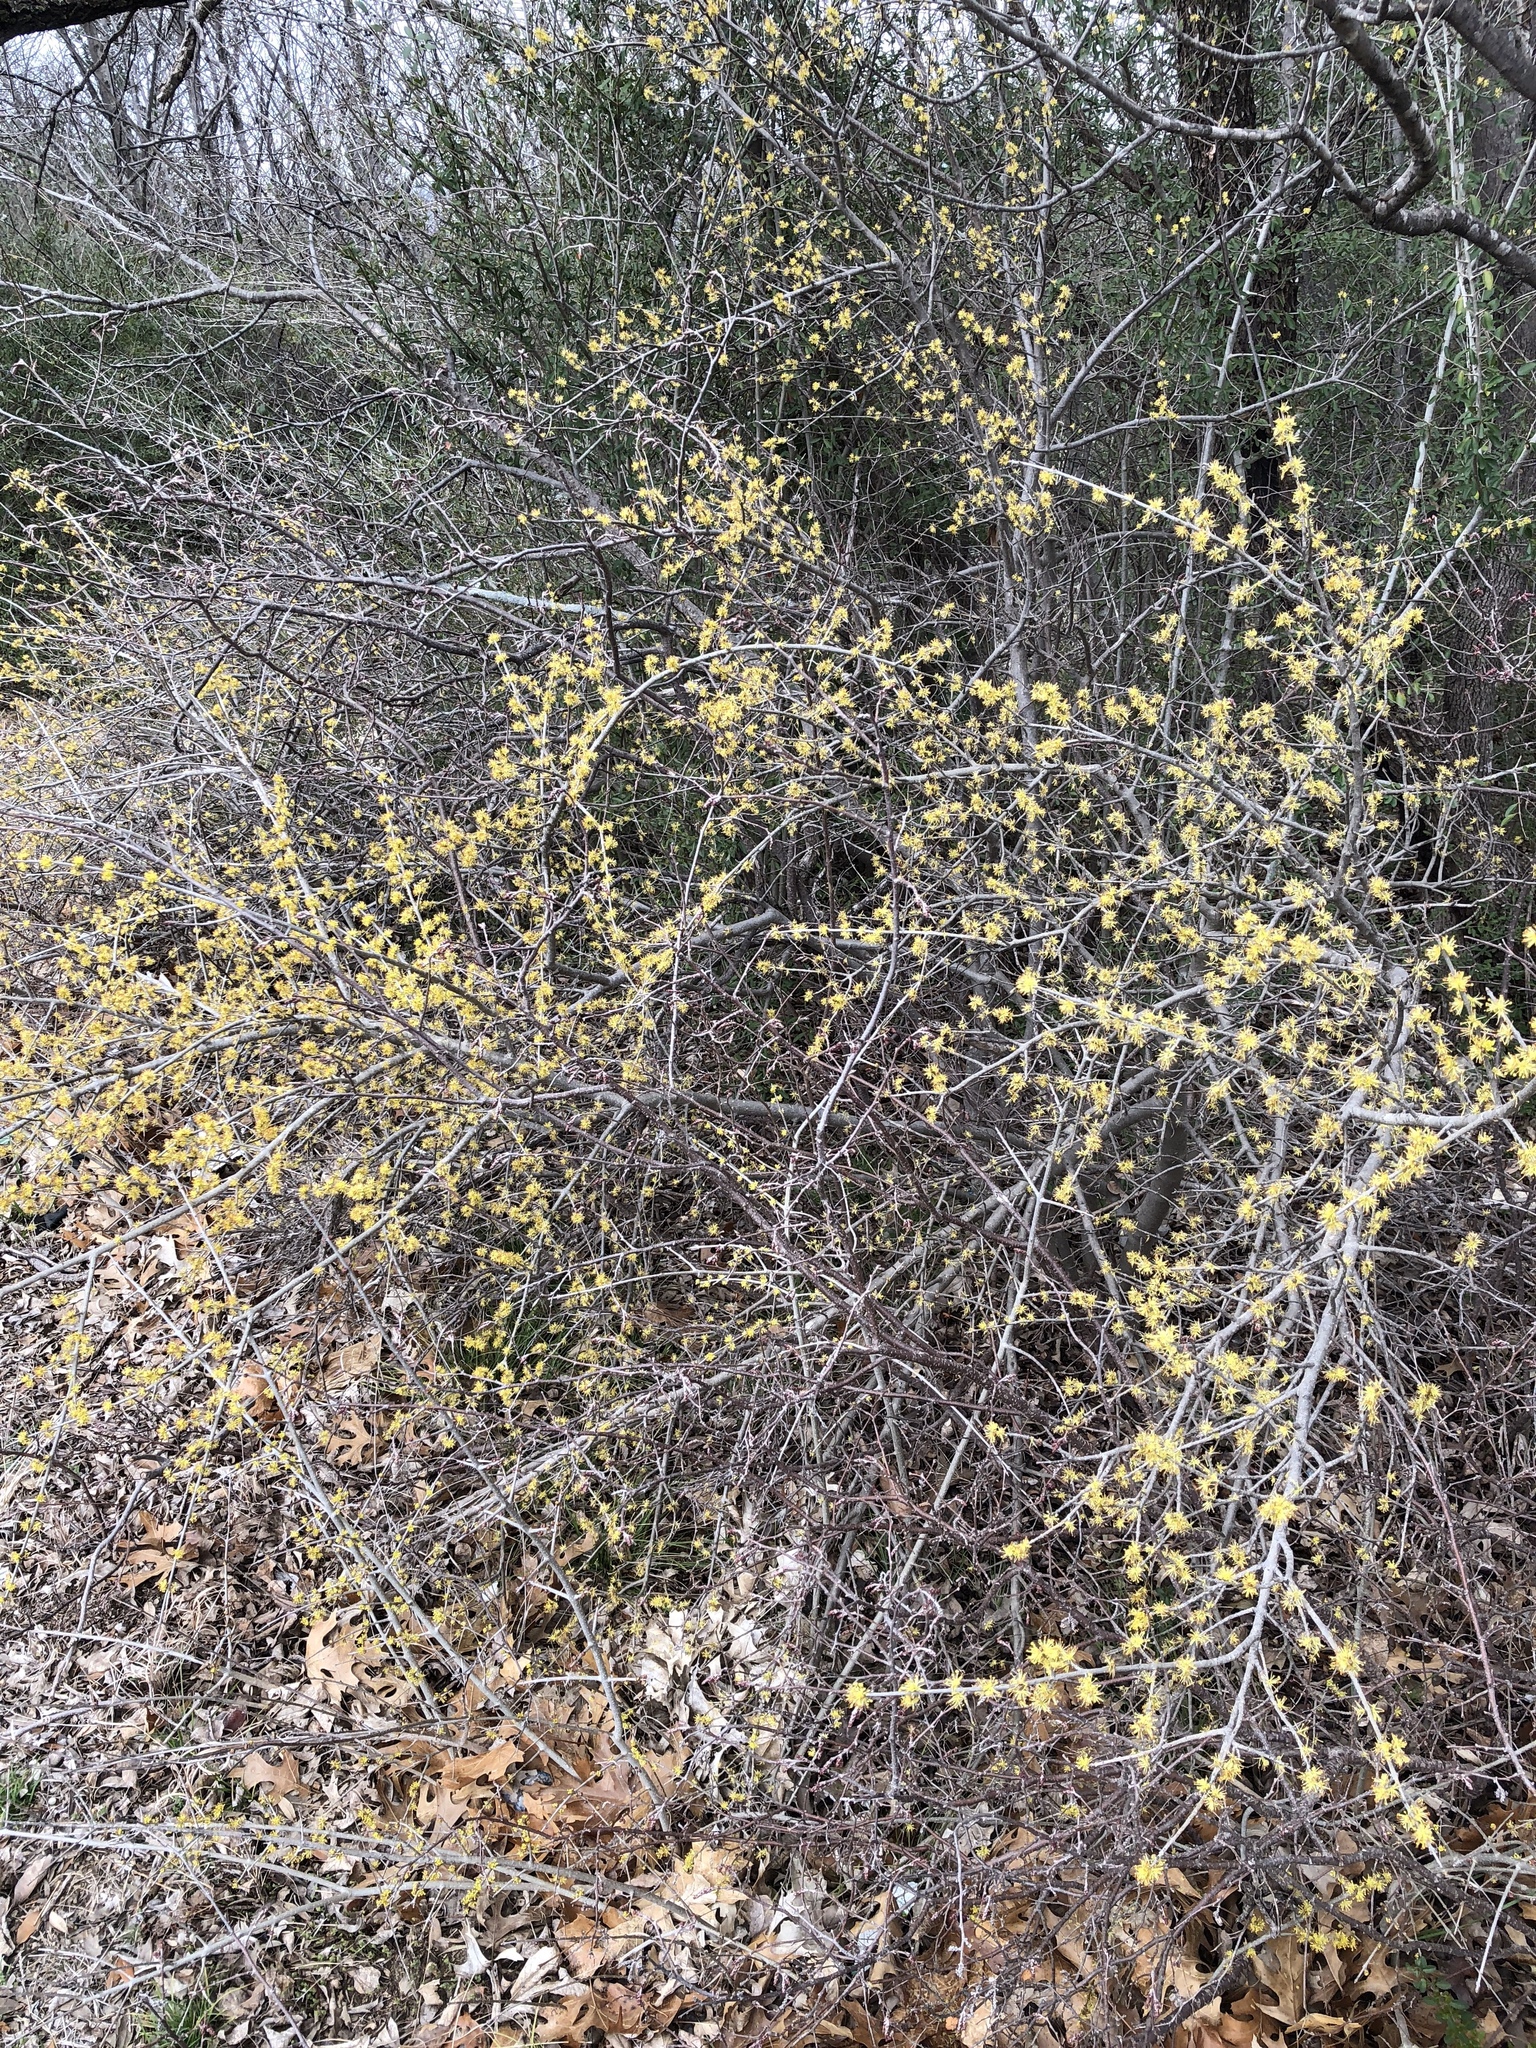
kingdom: Plantae
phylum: Tracheophyta
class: Magnoliopsida
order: Lamiales
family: Oleaceae
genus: Forestiera
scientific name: Forestiera pubescens
